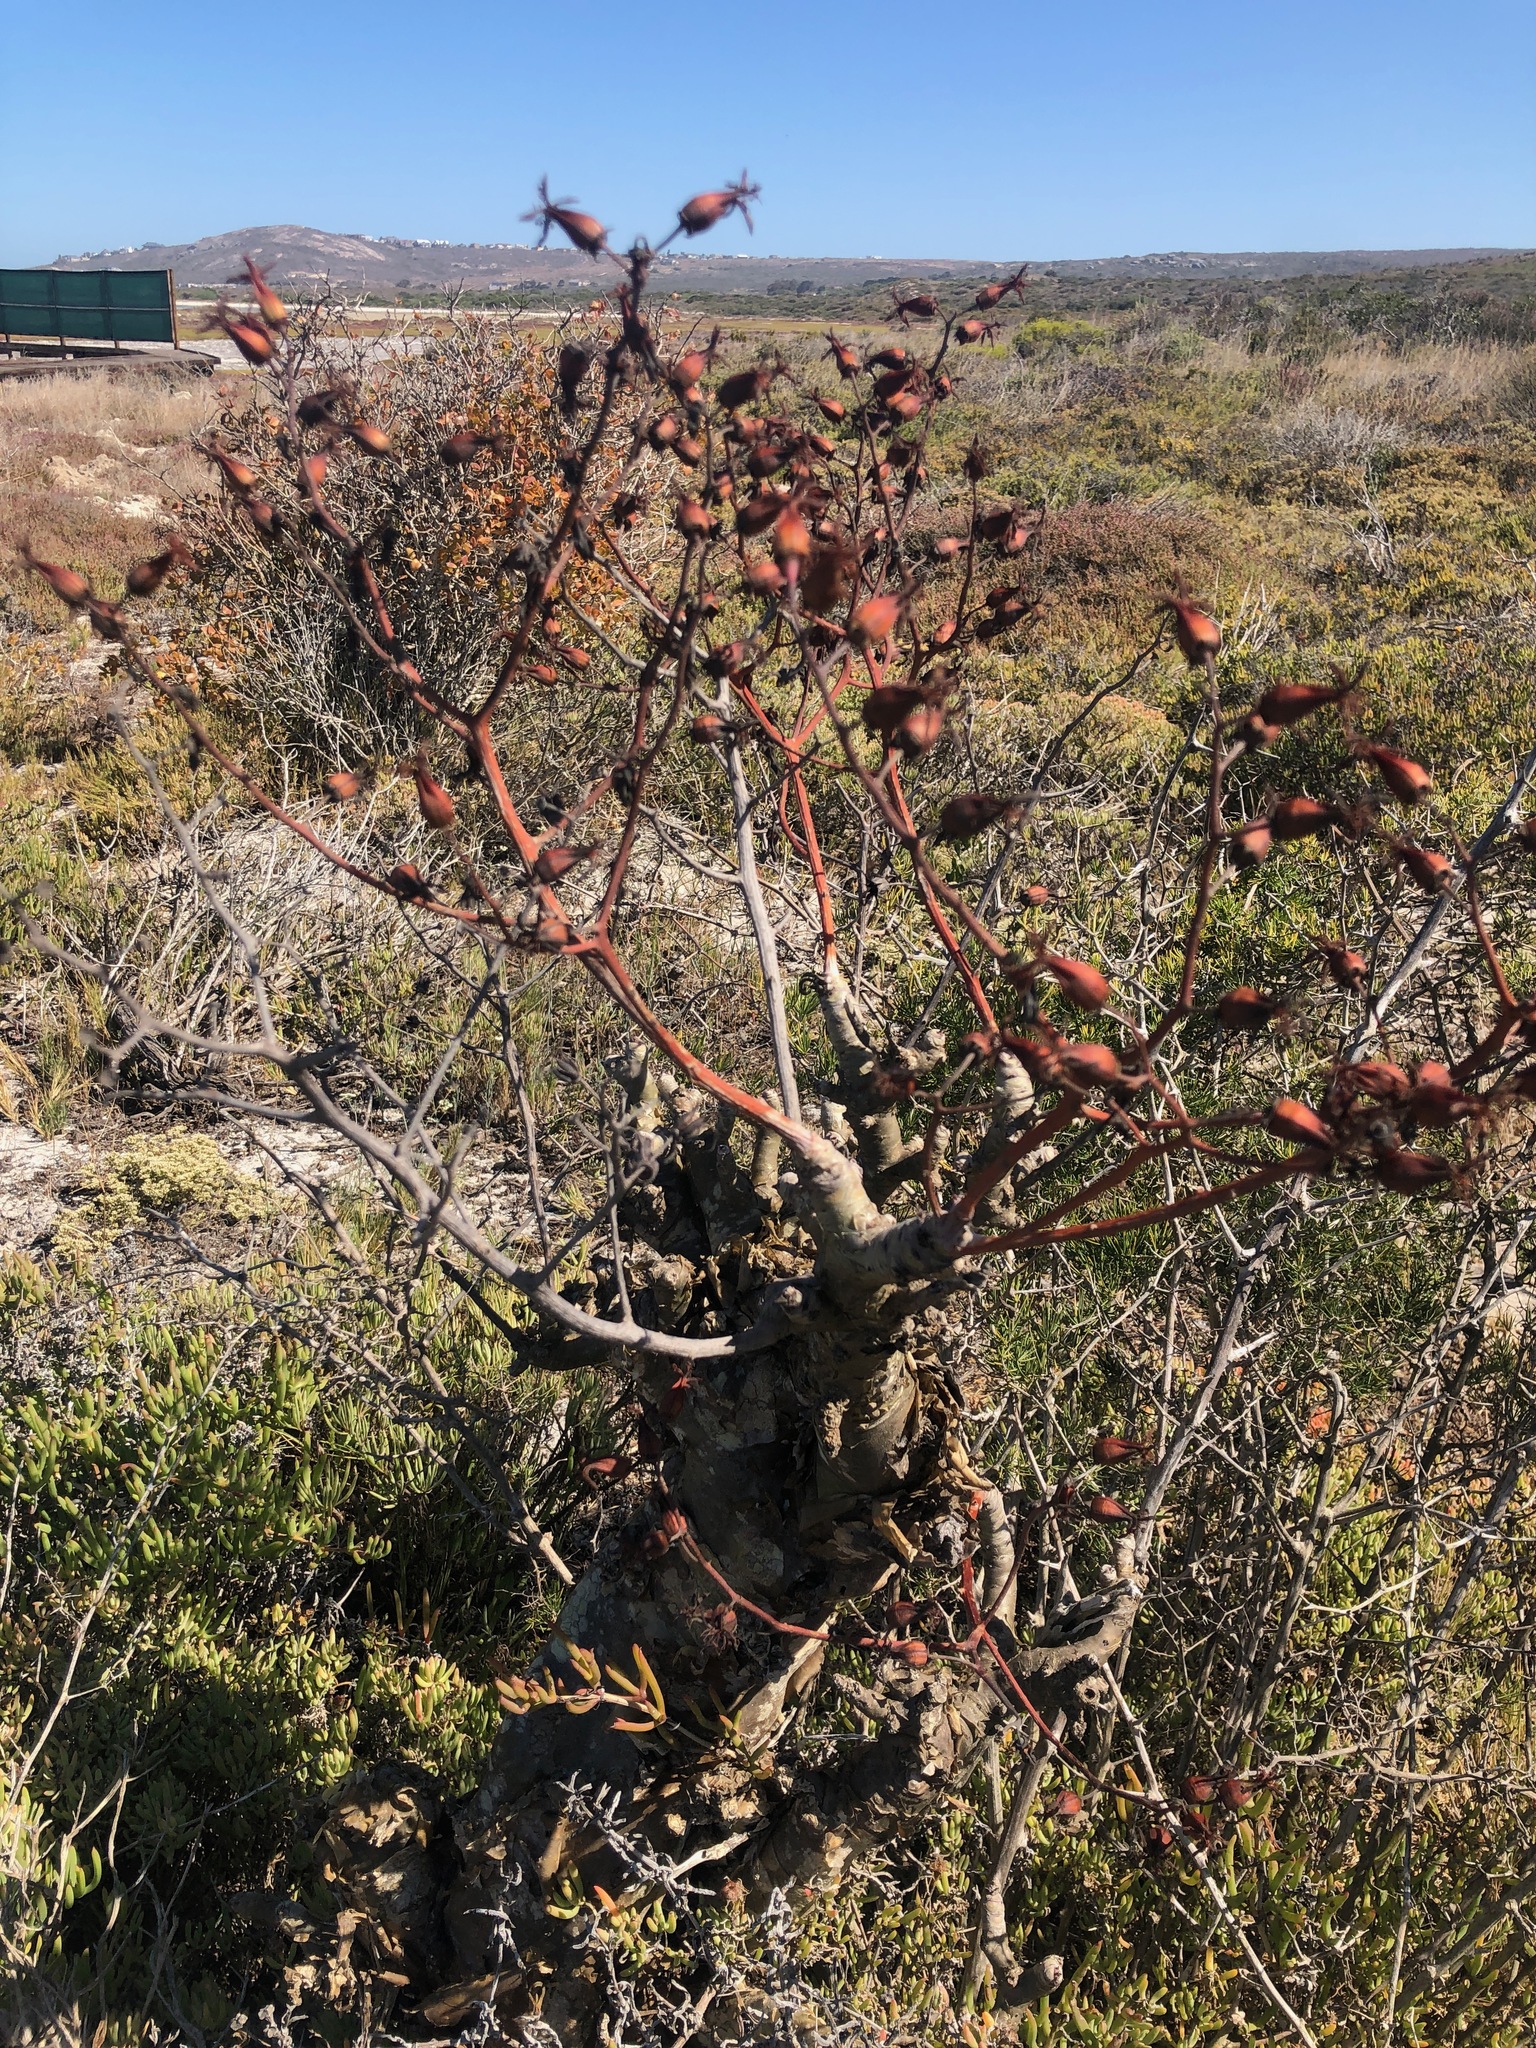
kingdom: Plantae
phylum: Tracheophyta
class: Magnoliopsida
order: Saxifragales
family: Crassulaceae
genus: Tylecodon
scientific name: Tylecodon paniculatus
